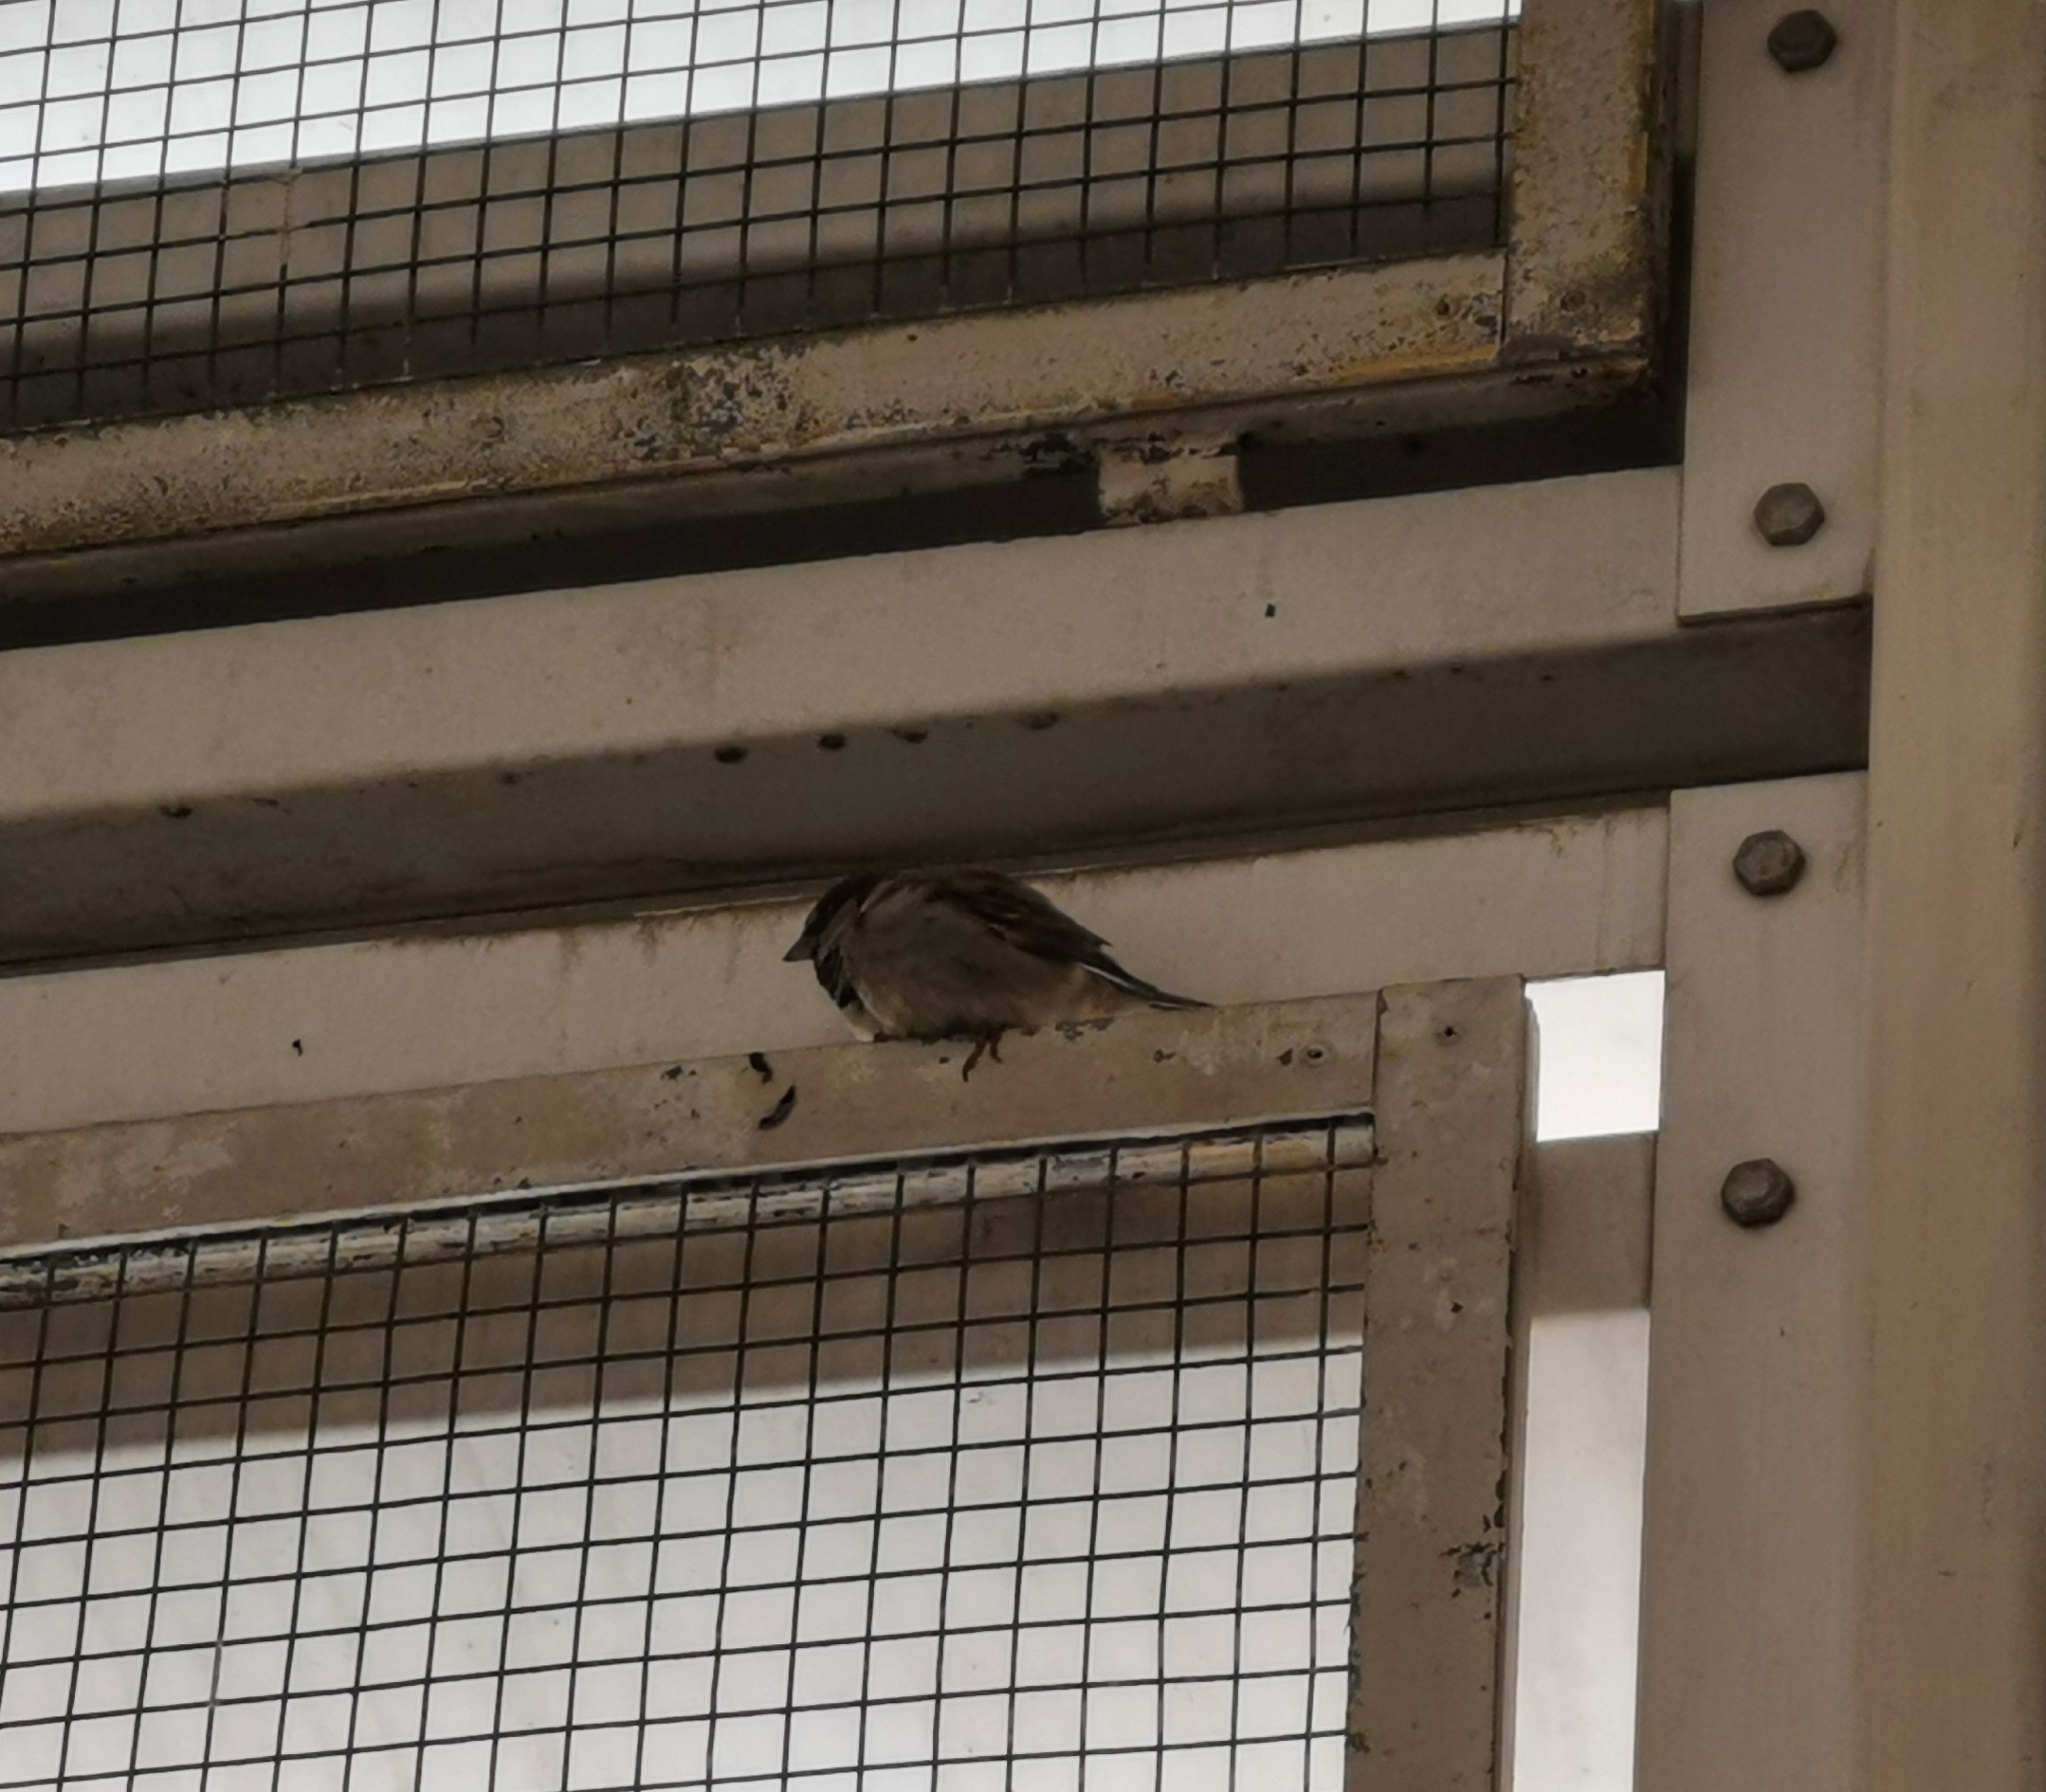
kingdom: Animalia
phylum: Chordata
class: Aves
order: Passeriformes
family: Passeridae
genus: Passer
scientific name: Passer domesticus
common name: House sparrow
